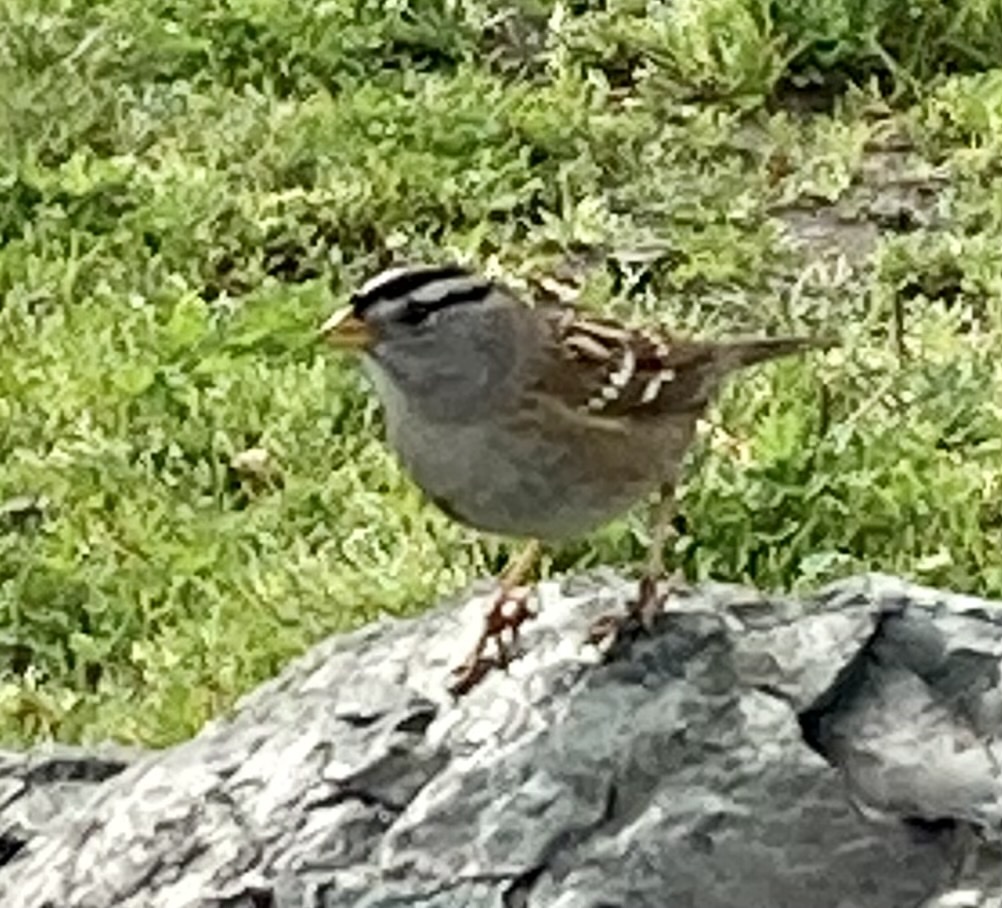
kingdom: Animalia
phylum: Chordata
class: Aves
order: Passeriformes
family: Passerellidae
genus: Zonotrichia
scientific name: Zonotrichia leucophrys
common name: White-crowned sparrow
